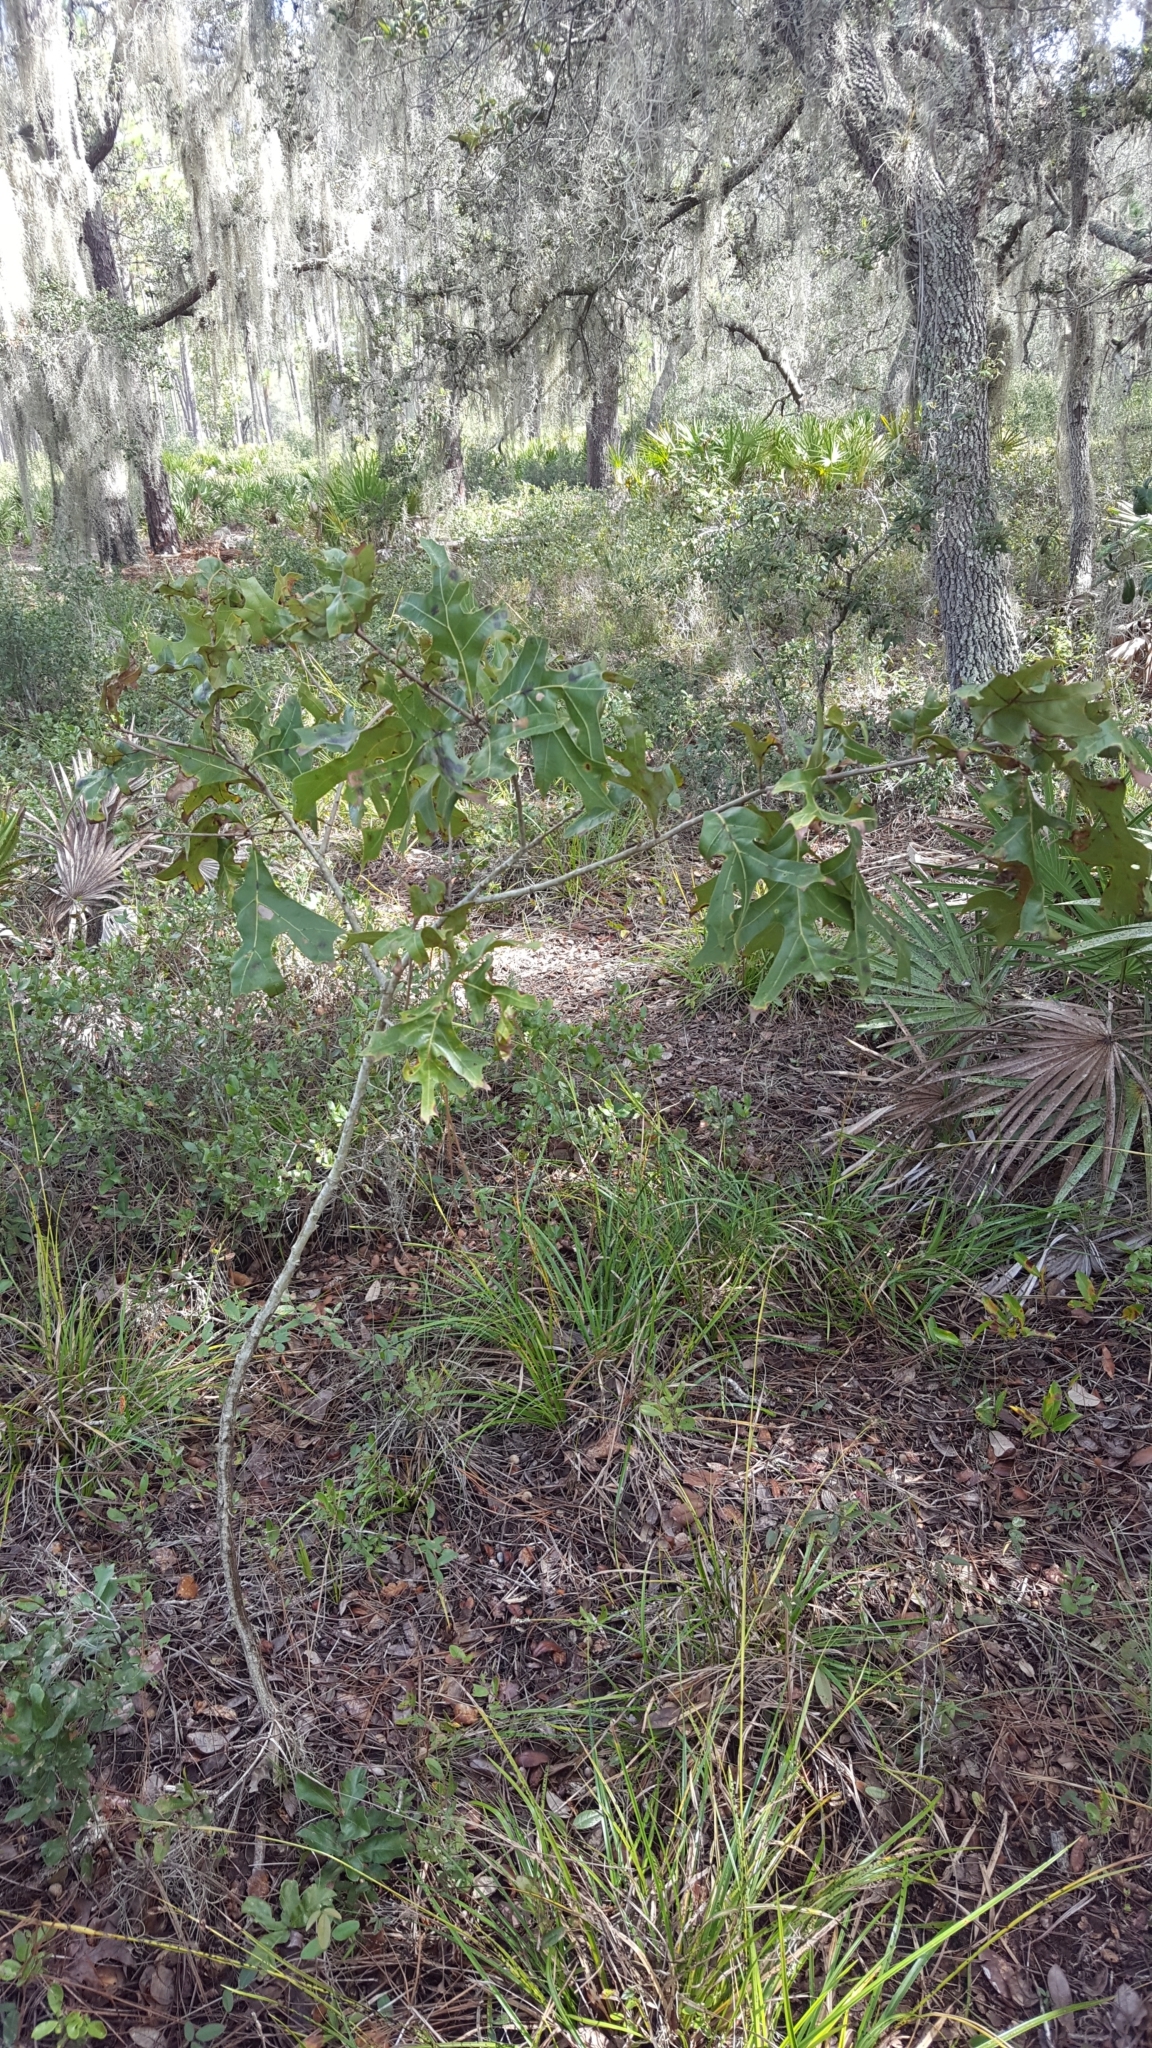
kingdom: Plantae
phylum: Tracheophyta
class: Magnoliopsida
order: Fagales
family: Fagaceae
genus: Quercus
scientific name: Quercus laevis
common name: Turkey oak
